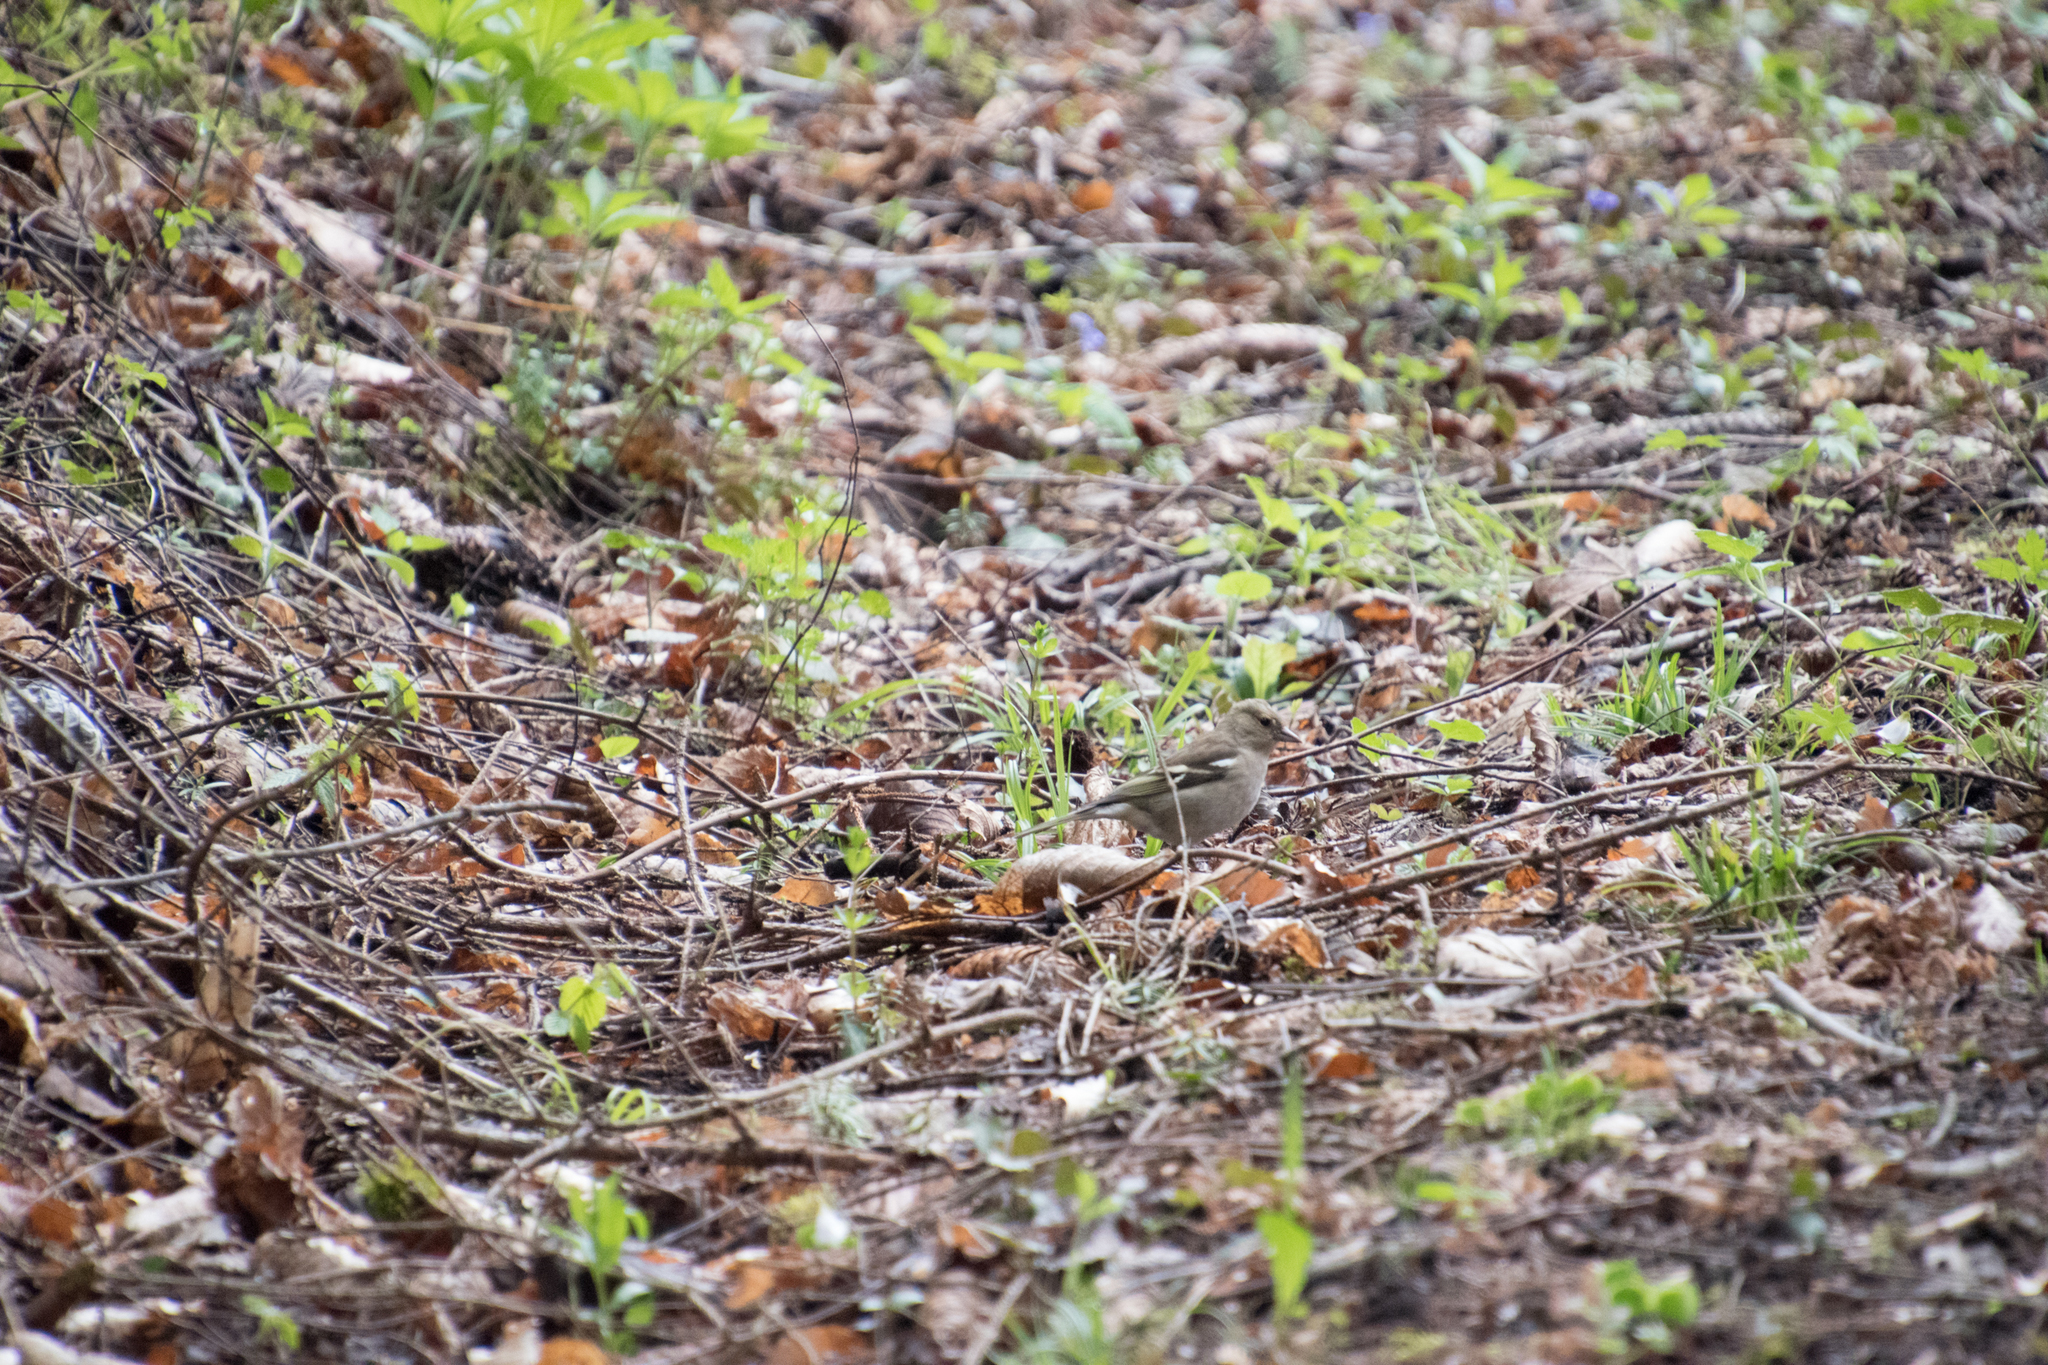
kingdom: Animalia
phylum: Chordata
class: Aves
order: Passeriformes
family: Fringillidae
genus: Fringilla
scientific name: Fringilla coelebs
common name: Common chaffinch
